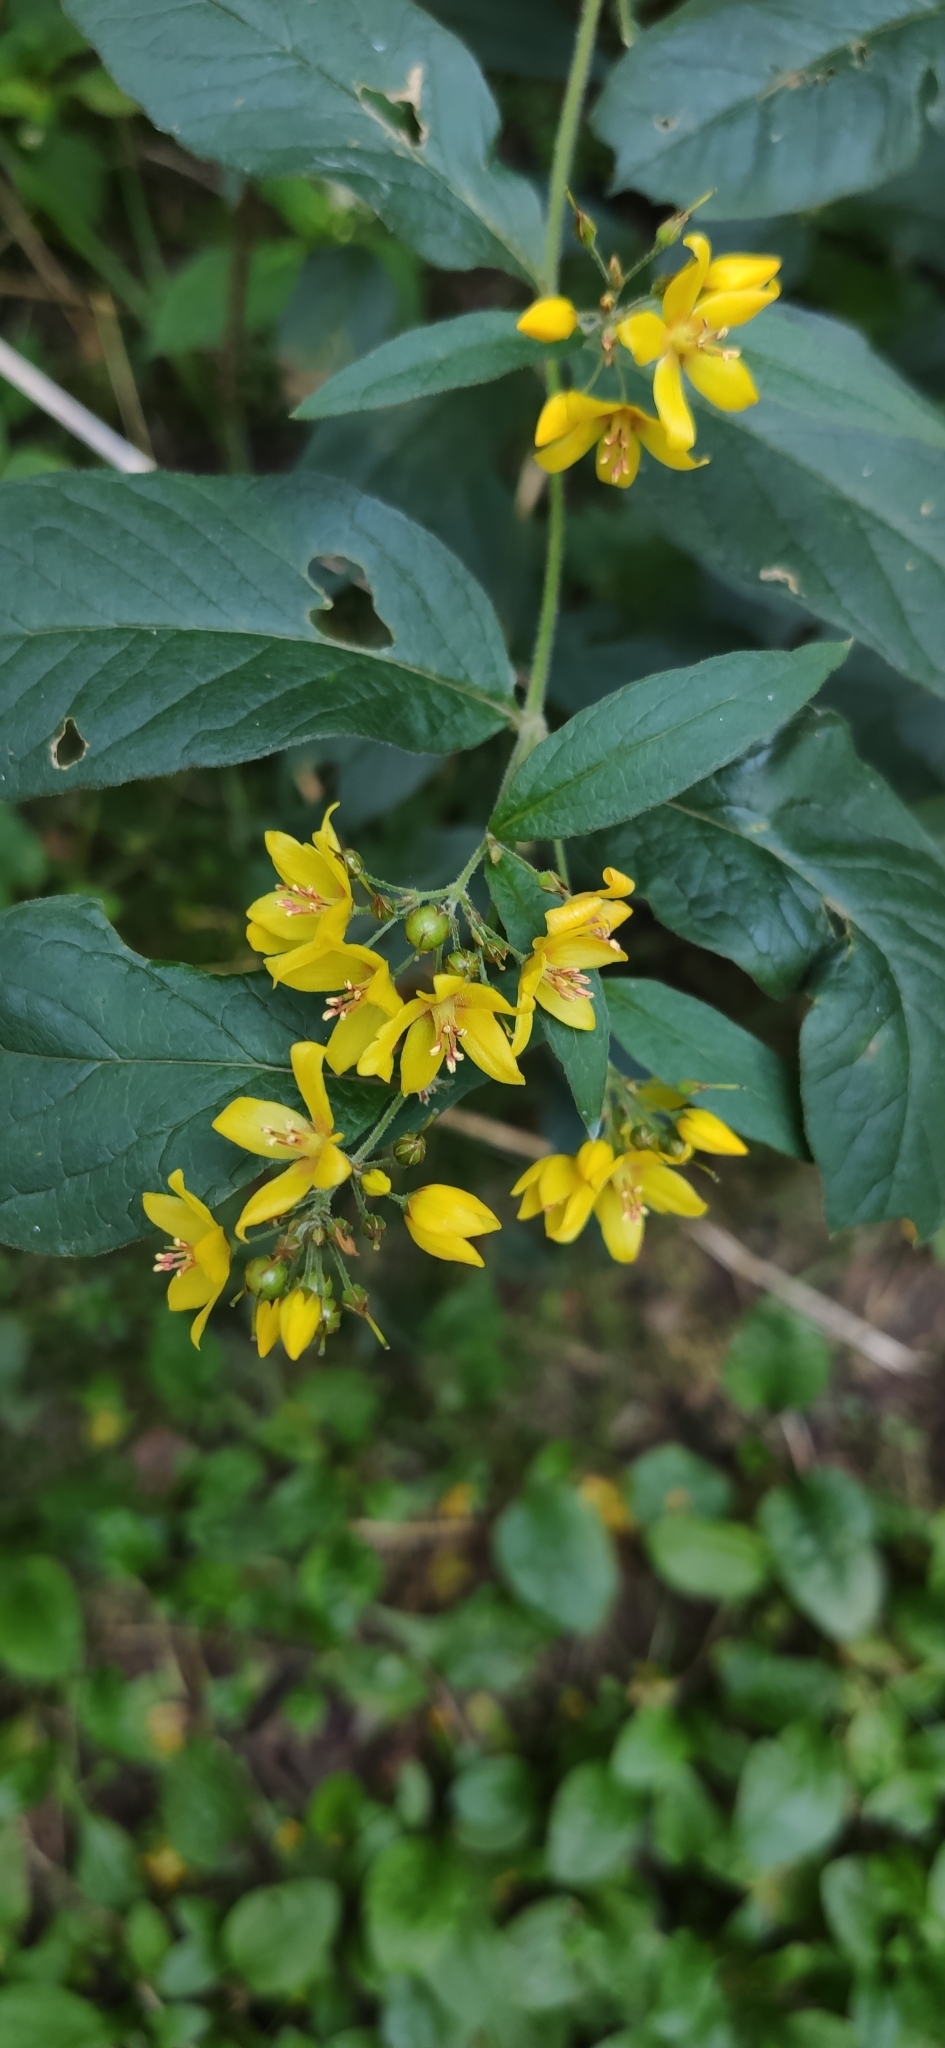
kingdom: Plantae
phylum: Tracheophyta
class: Magnoliopsida
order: Ericales
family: Primulaceae
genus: Lysimachia
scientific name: Lysimachia vulgaris
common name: Yellow loosestrife
